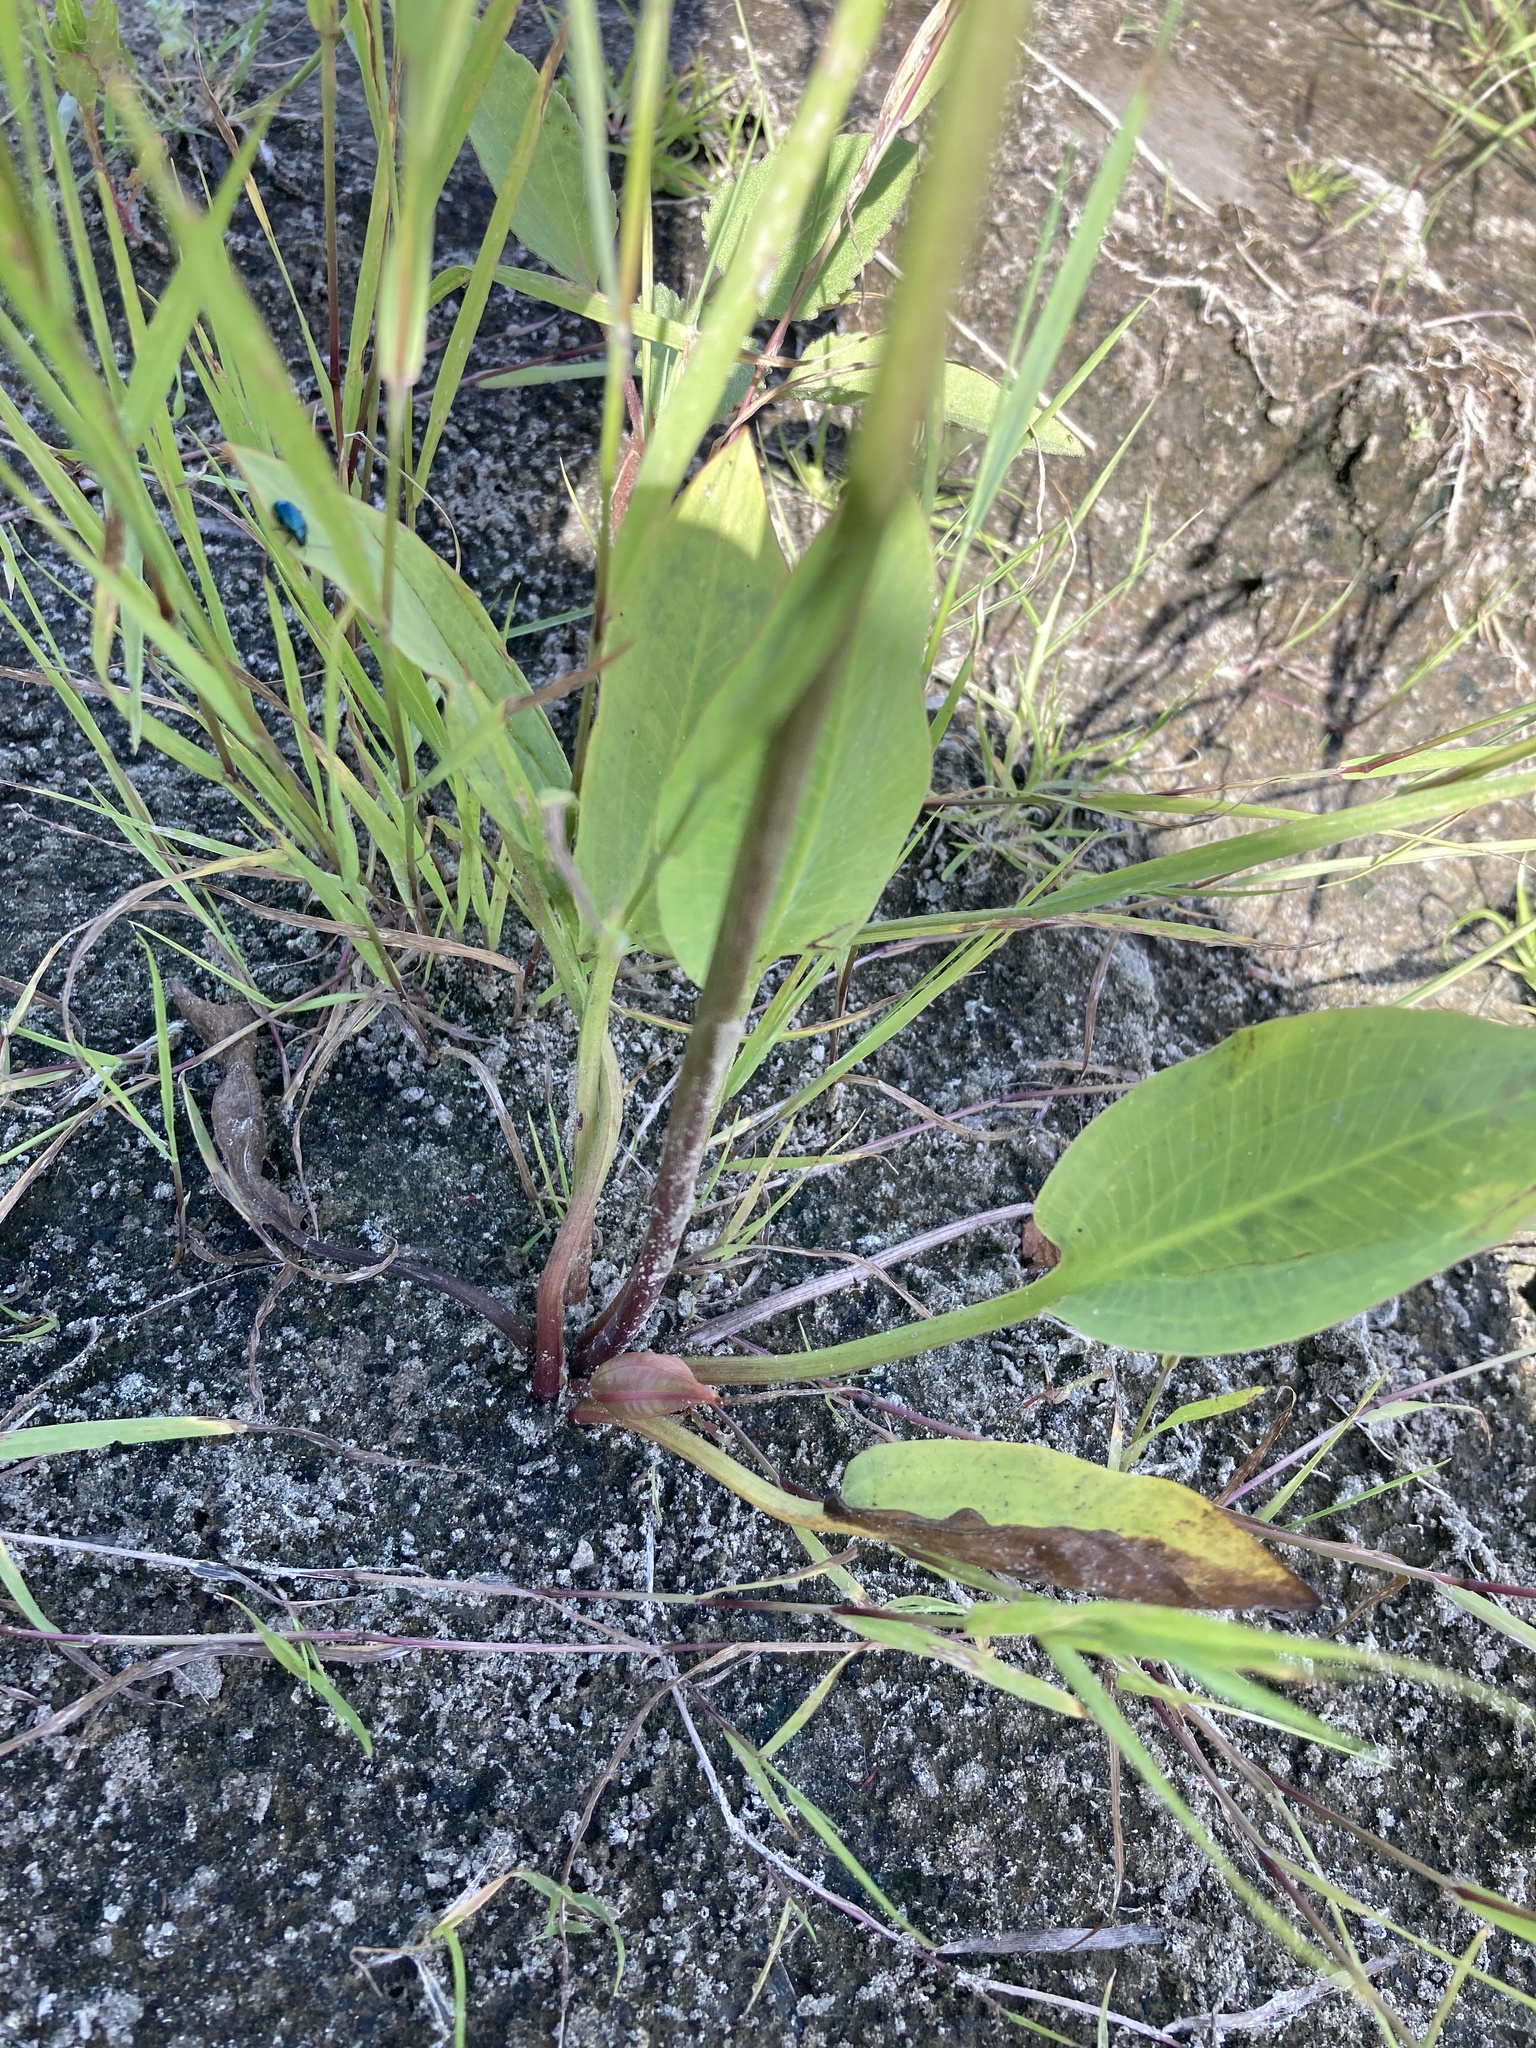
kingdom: Plantae
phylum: Tracheophyta
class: Liliopsida
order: Alismatales
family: Alismataceae
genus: Alisma
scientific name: Alisma plantago-aquatica
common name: Water-plantain
